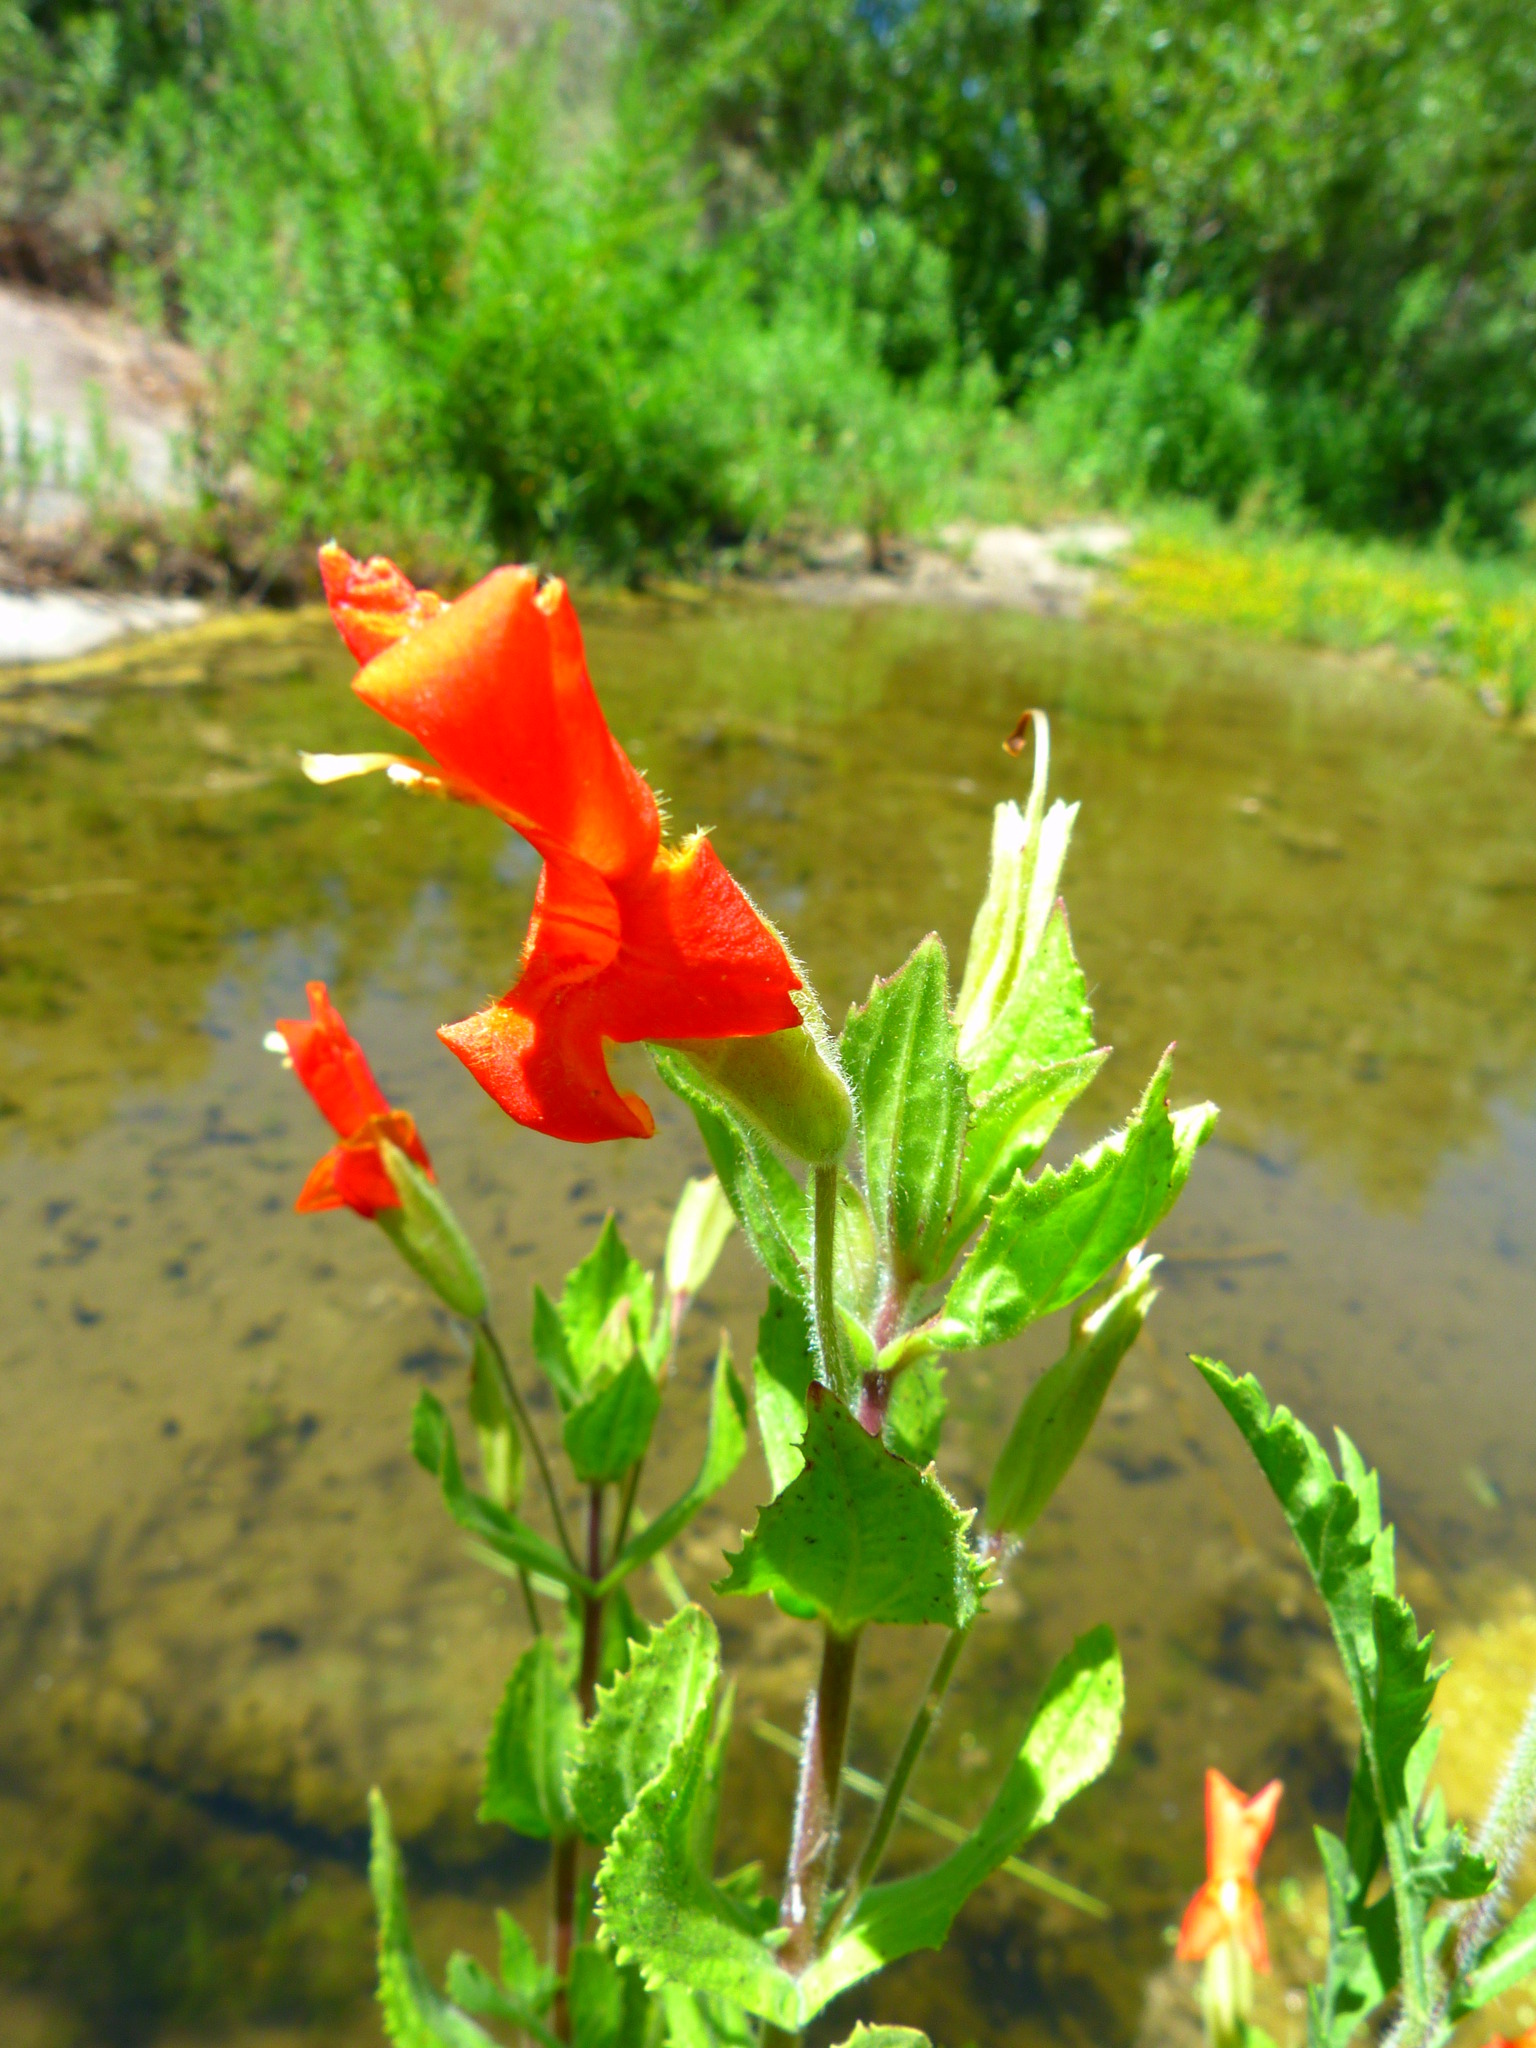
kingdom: Plantae
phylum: Tracheophyta
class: Magnoliopsida
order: Lamiales
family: Phrymaceae
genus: Erythranthe
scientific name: Erythranthe cardinalis
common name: Scarlet monkey-flower
